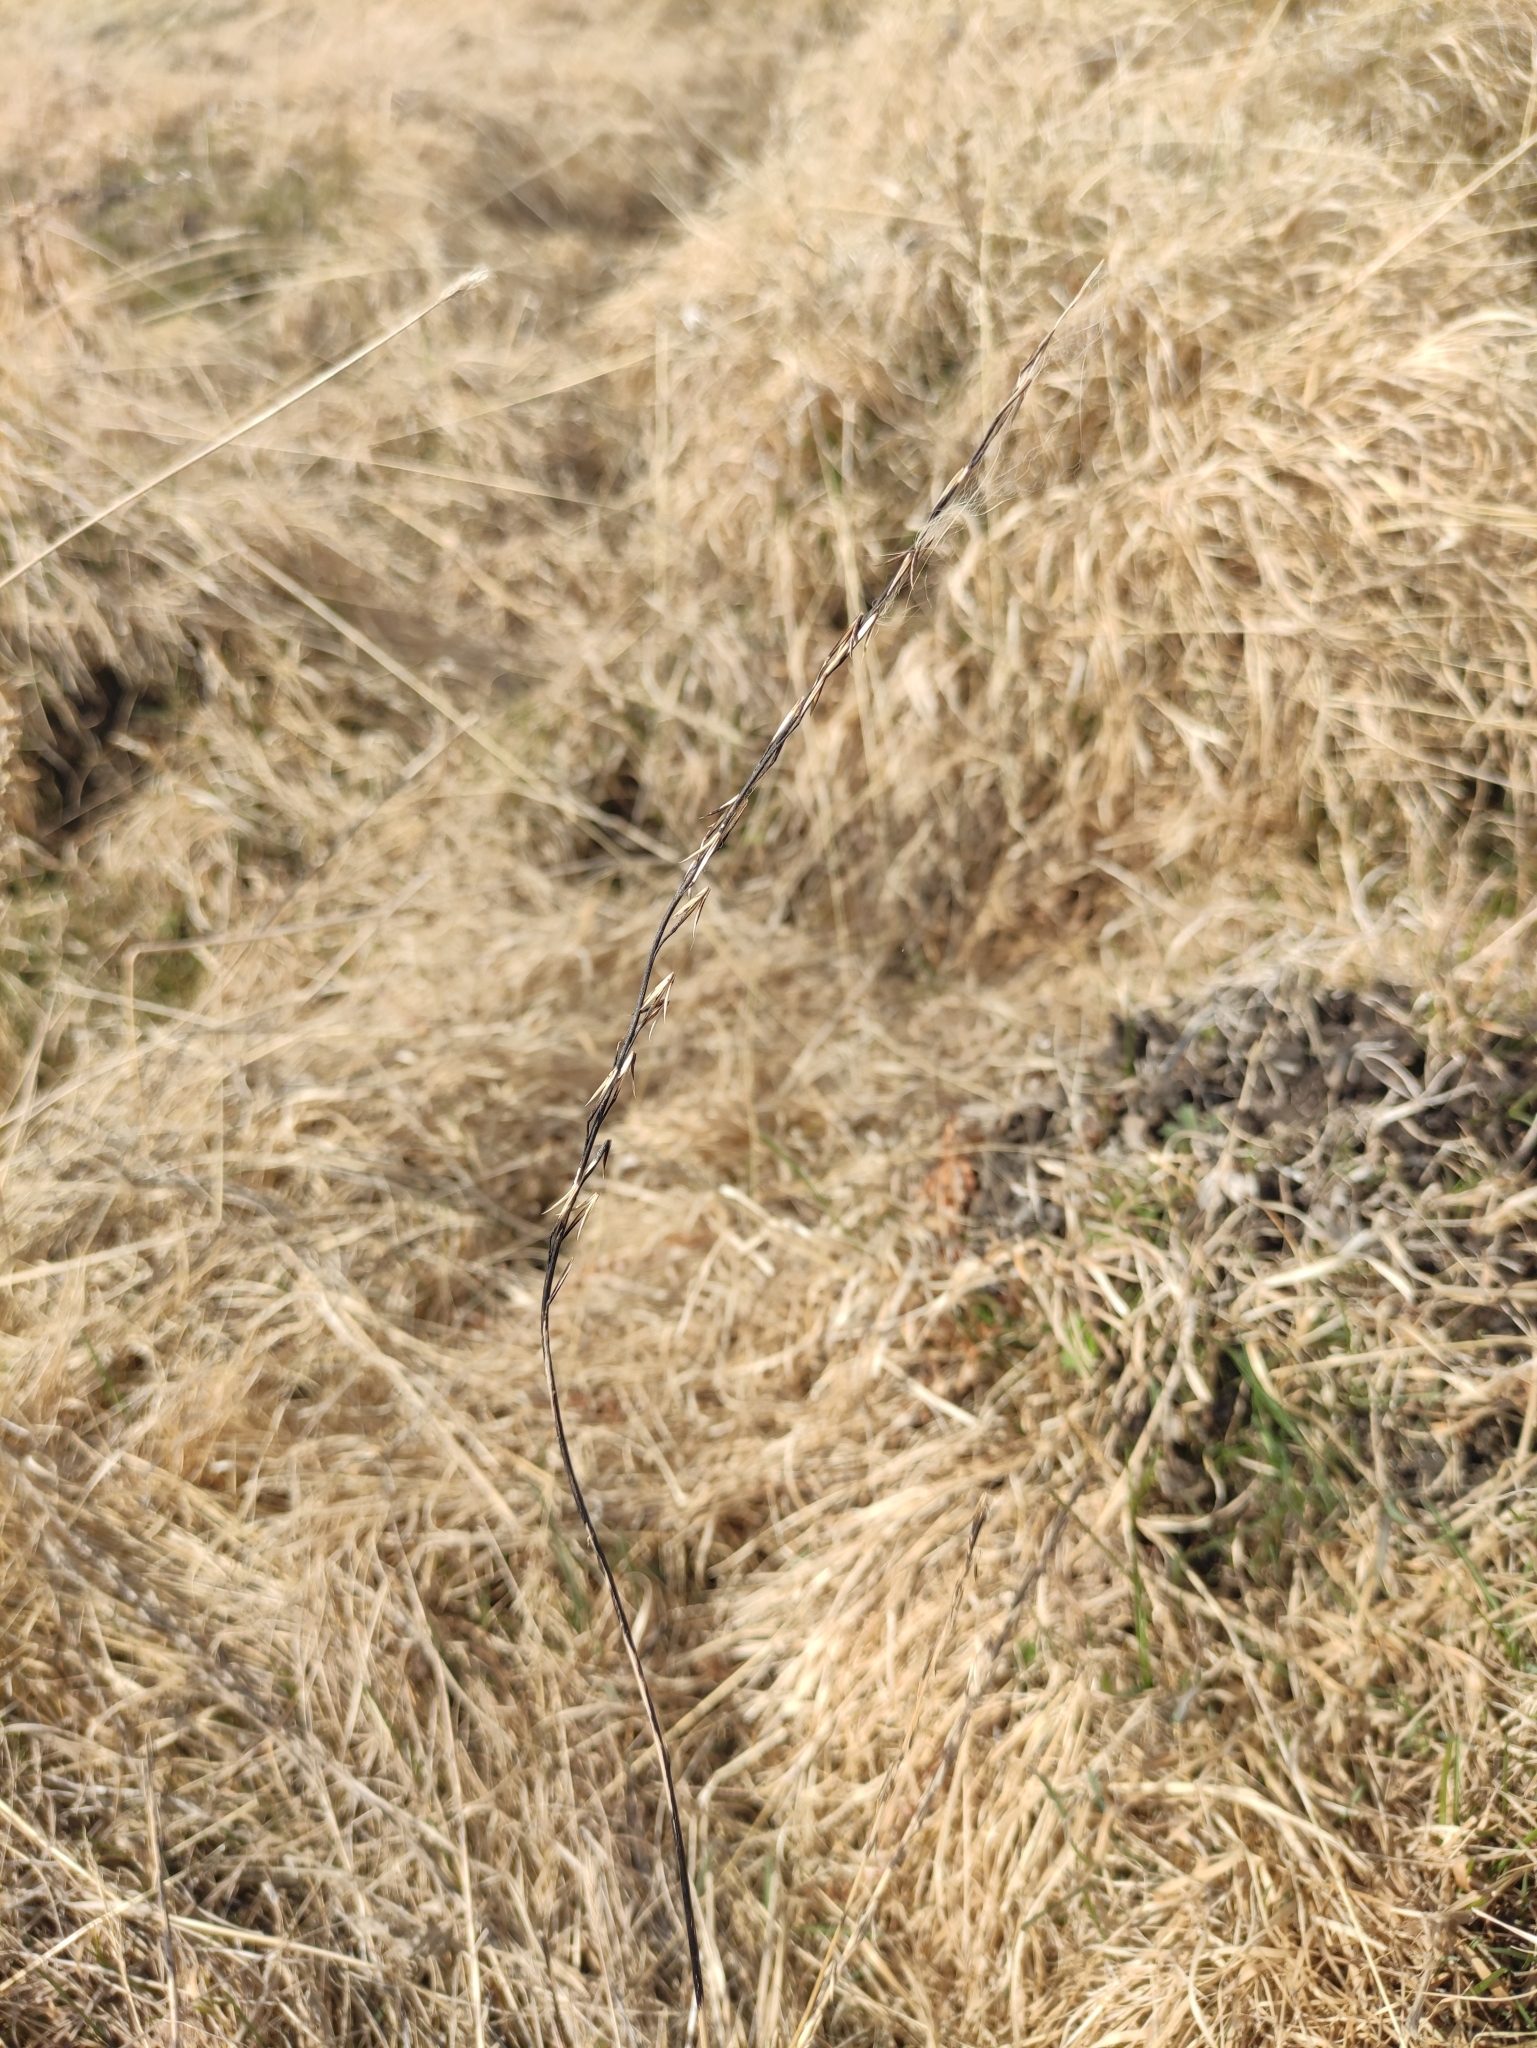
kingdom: Plantae
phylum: Tracheophyta
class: Liliopsida
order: Alismatales
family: Juncaginaceae
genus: Triglochin
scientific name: Triglochin palustris
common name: Marsh arrowgrass
